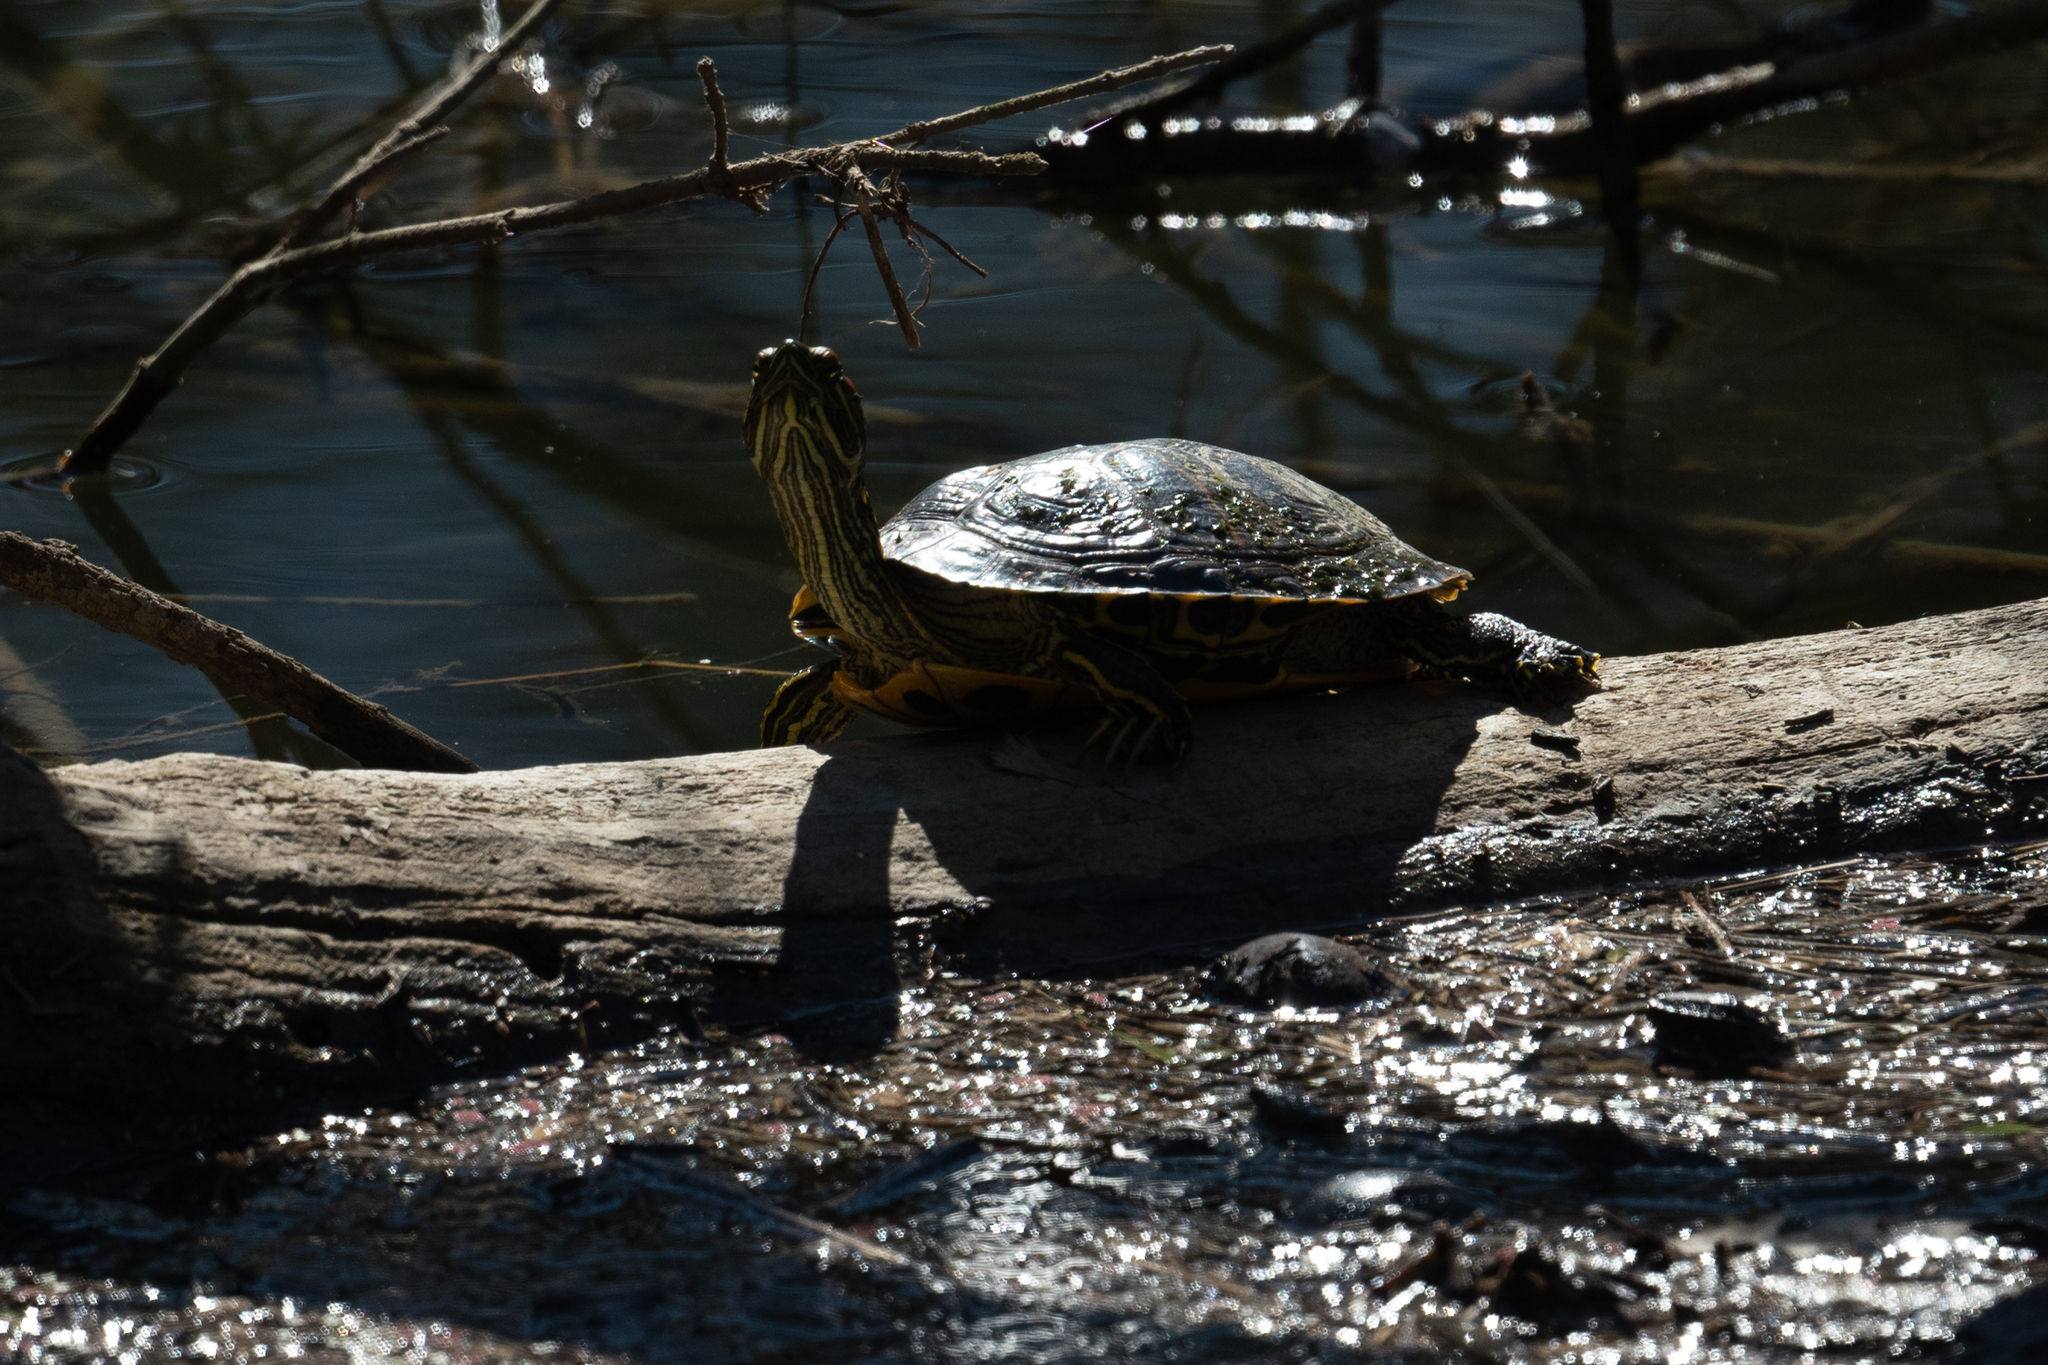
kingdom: Animalia
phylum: Chordata
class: Testudines
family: Emydidae
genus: Trachemys
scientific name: Trachemys scripta
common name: Slider
